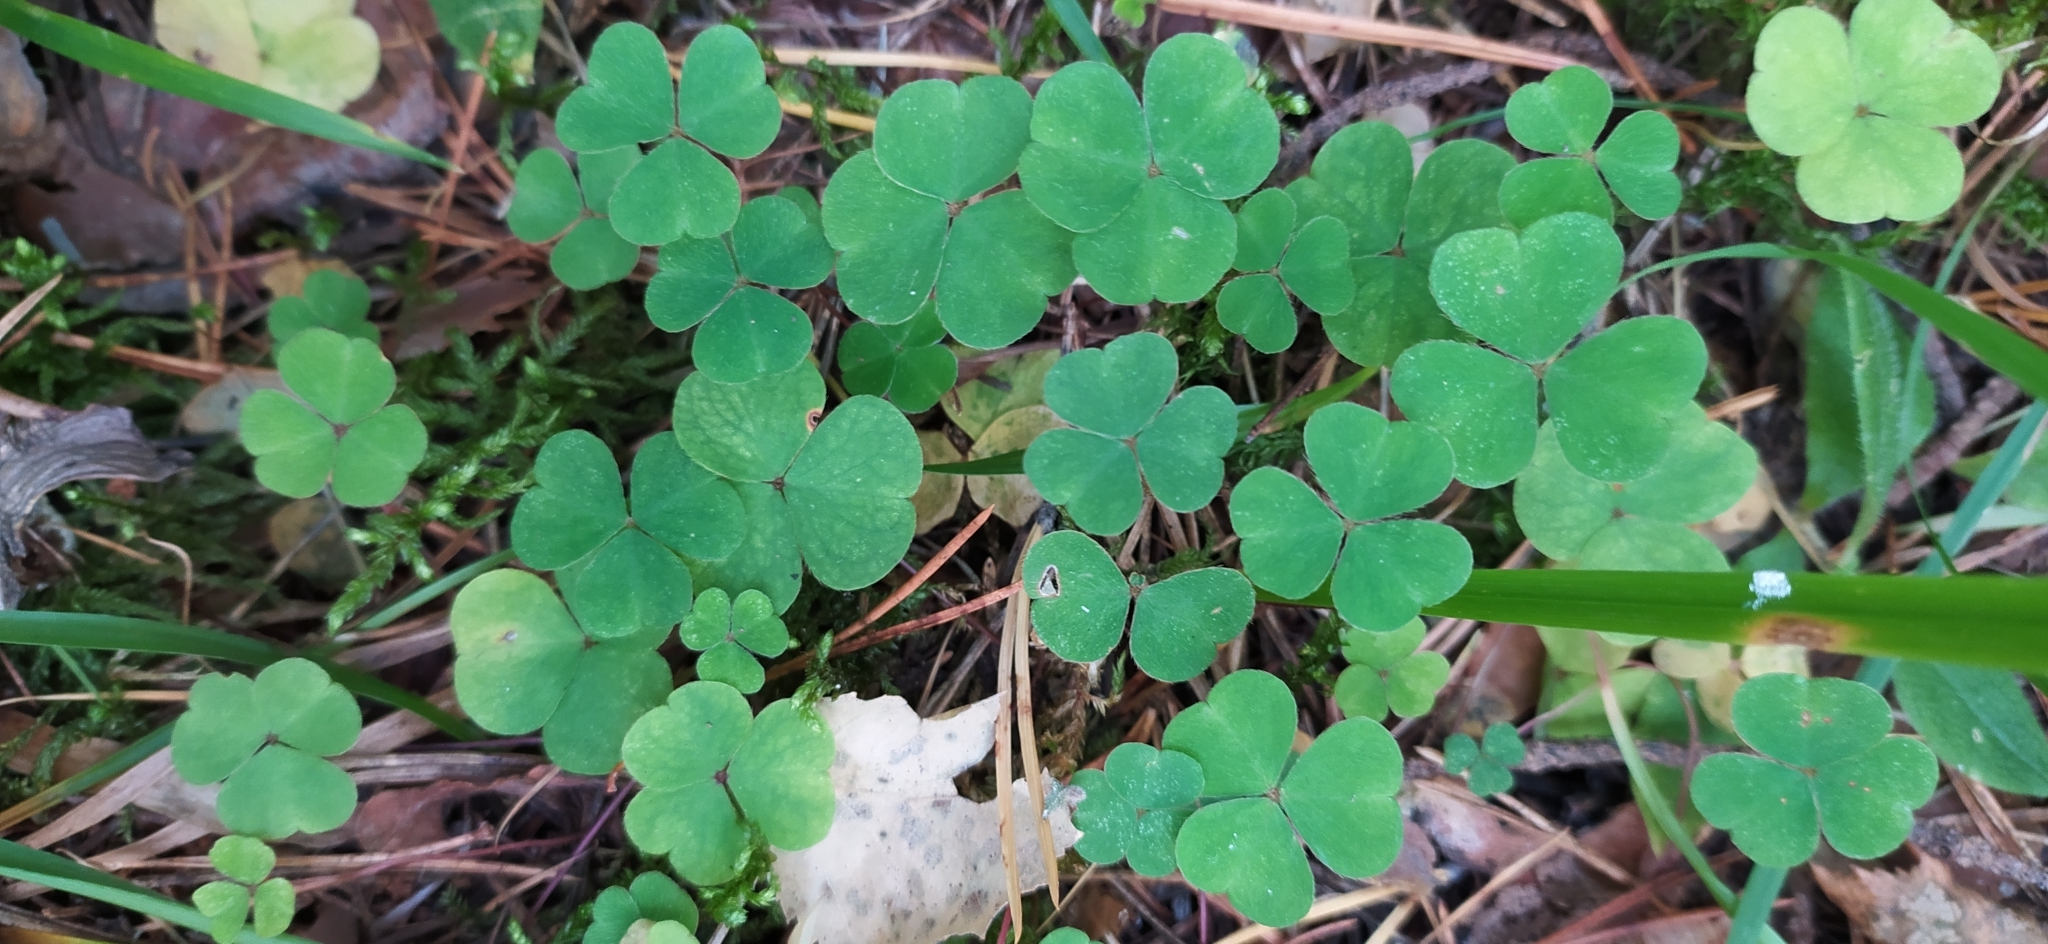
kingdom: Plantae
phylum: Tracheophyta
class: Magnoliopsida
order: Oxalidales
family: Oxalidaceae
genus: Oxalis
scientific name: Oxalis acetosella
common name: Wood-sorrel
